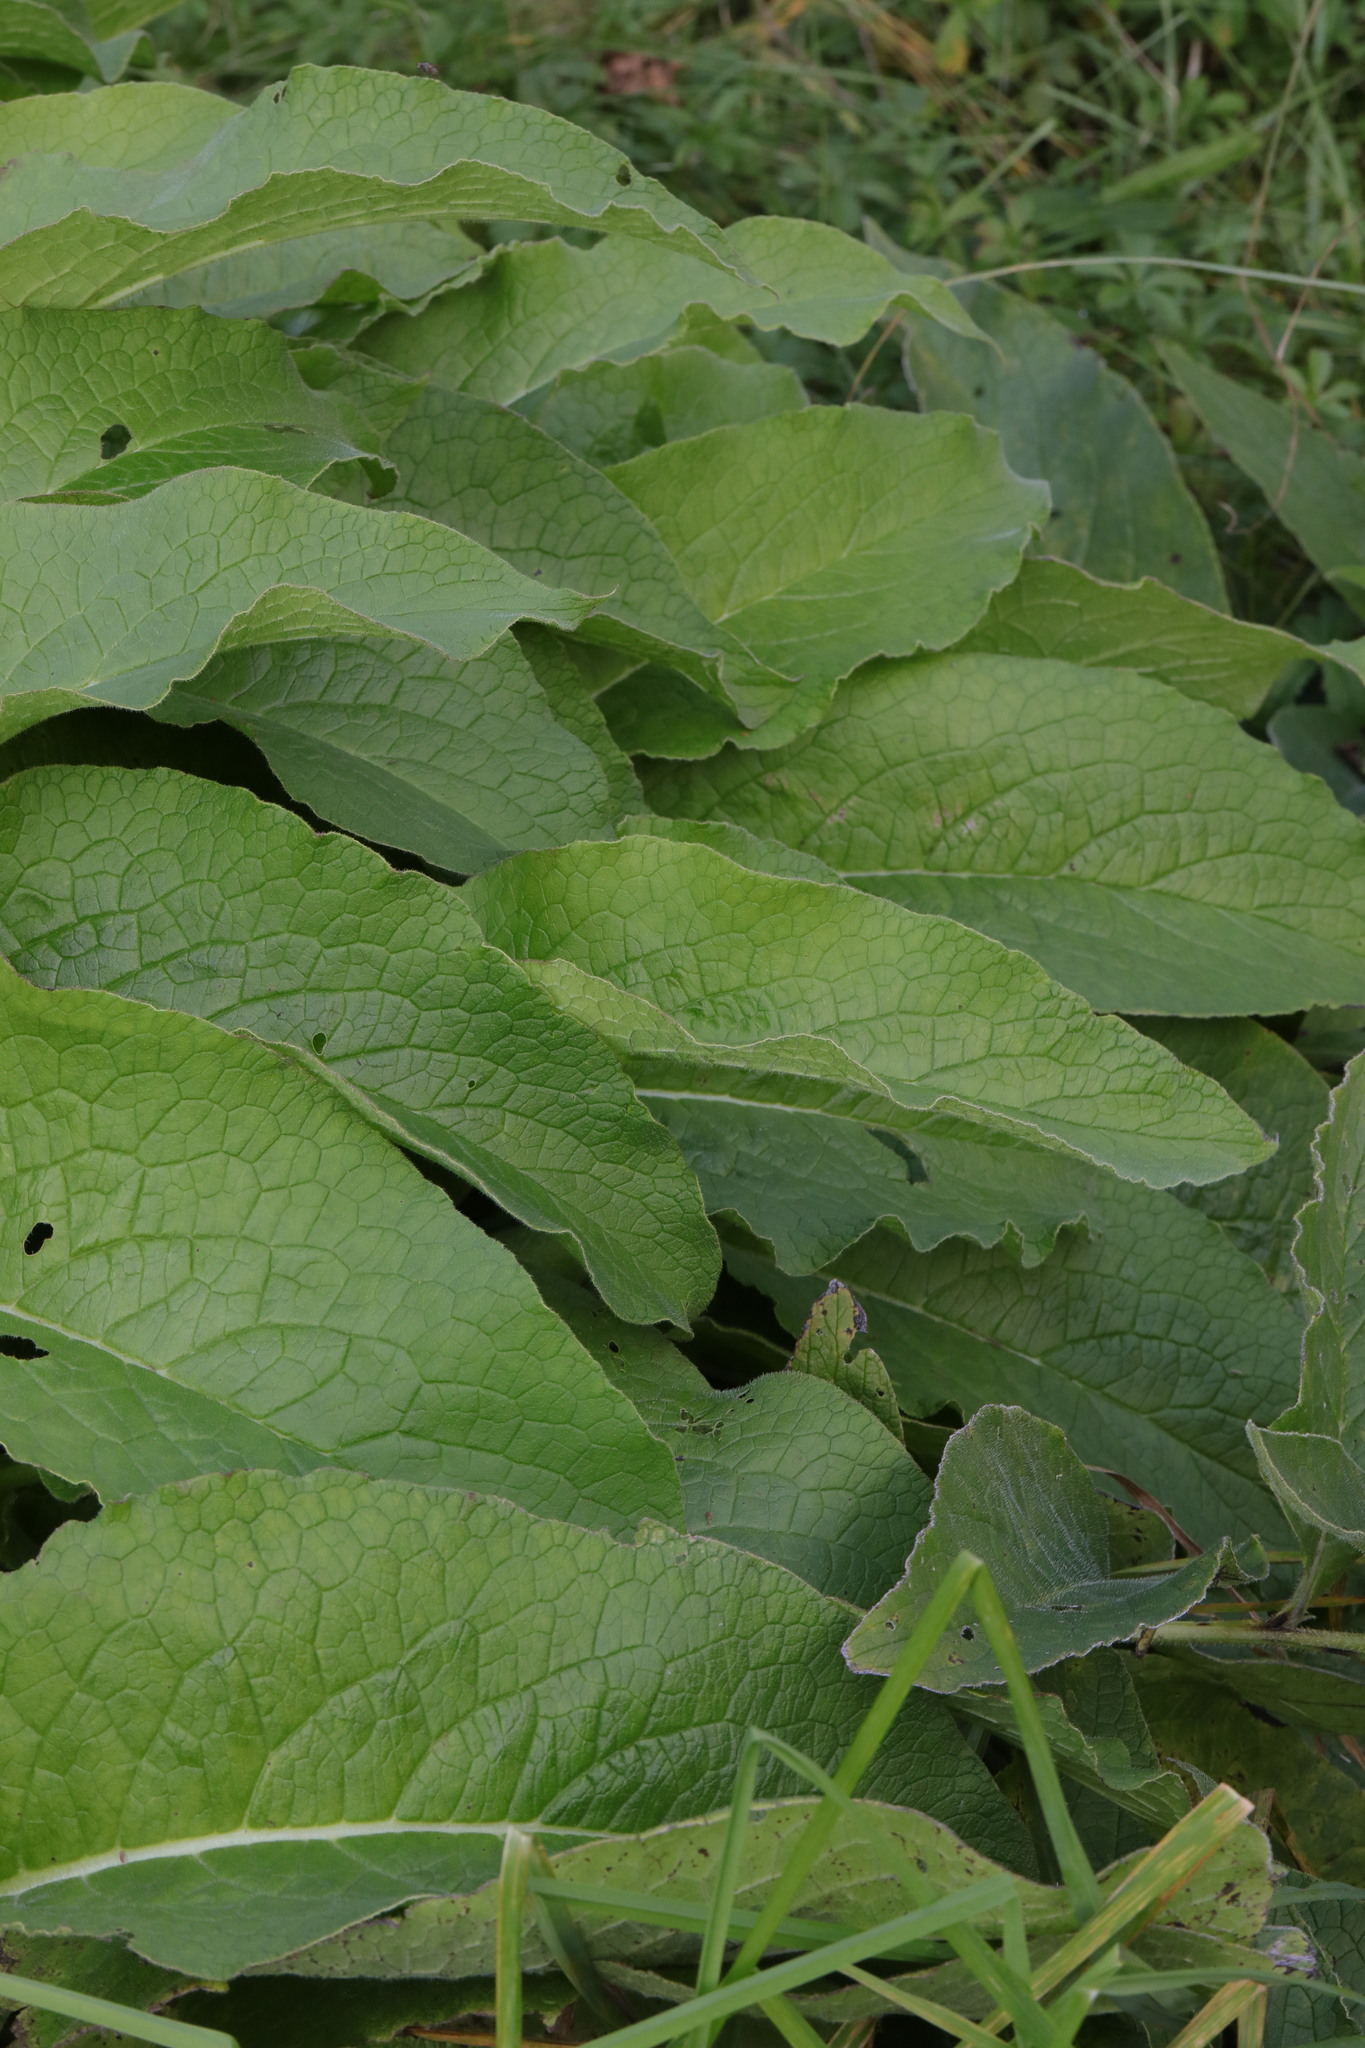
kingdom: Plantae
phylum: Tracheophyta
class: Magnoliopsida
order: Boraginales
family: Boraginaceae
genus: Symphytum
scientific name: Symphytum officinale
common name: Common comfrey
